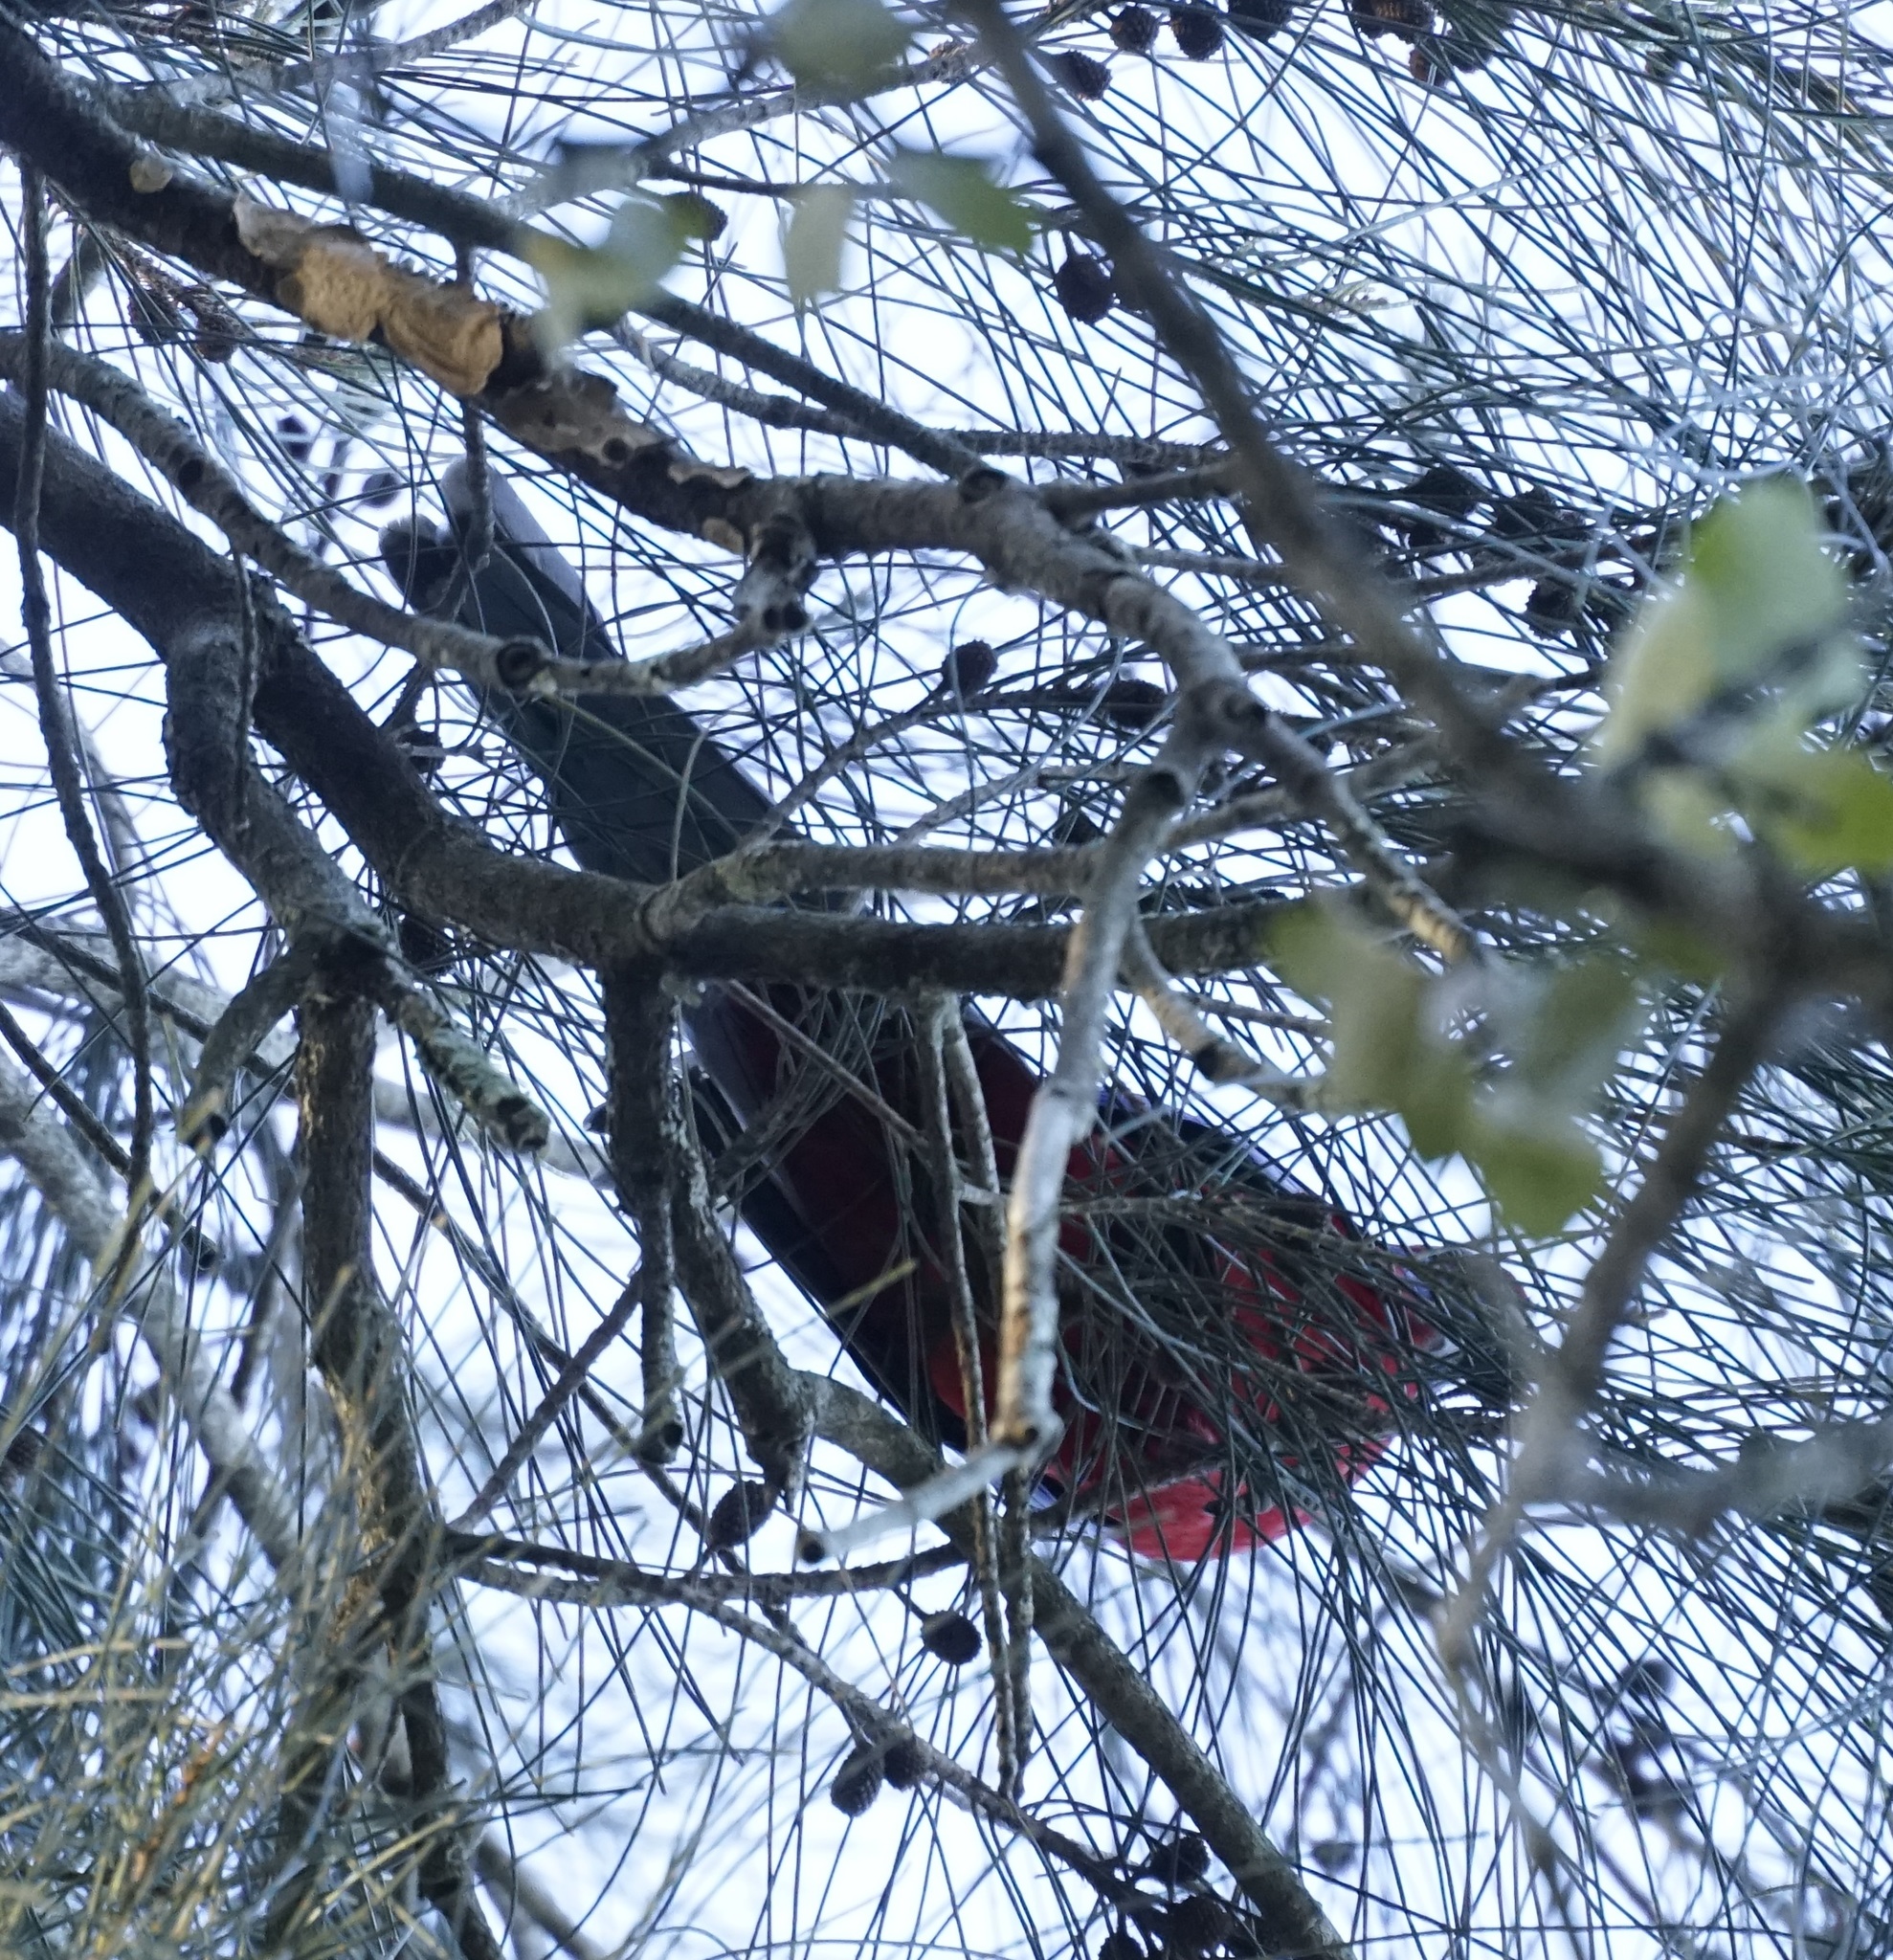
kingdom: Animalia
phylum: Chordata
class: Aves
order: Psittaciformes
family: Psittacidae
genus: Platycercus
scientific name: Platycercus elegans
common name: Crimson rosella
